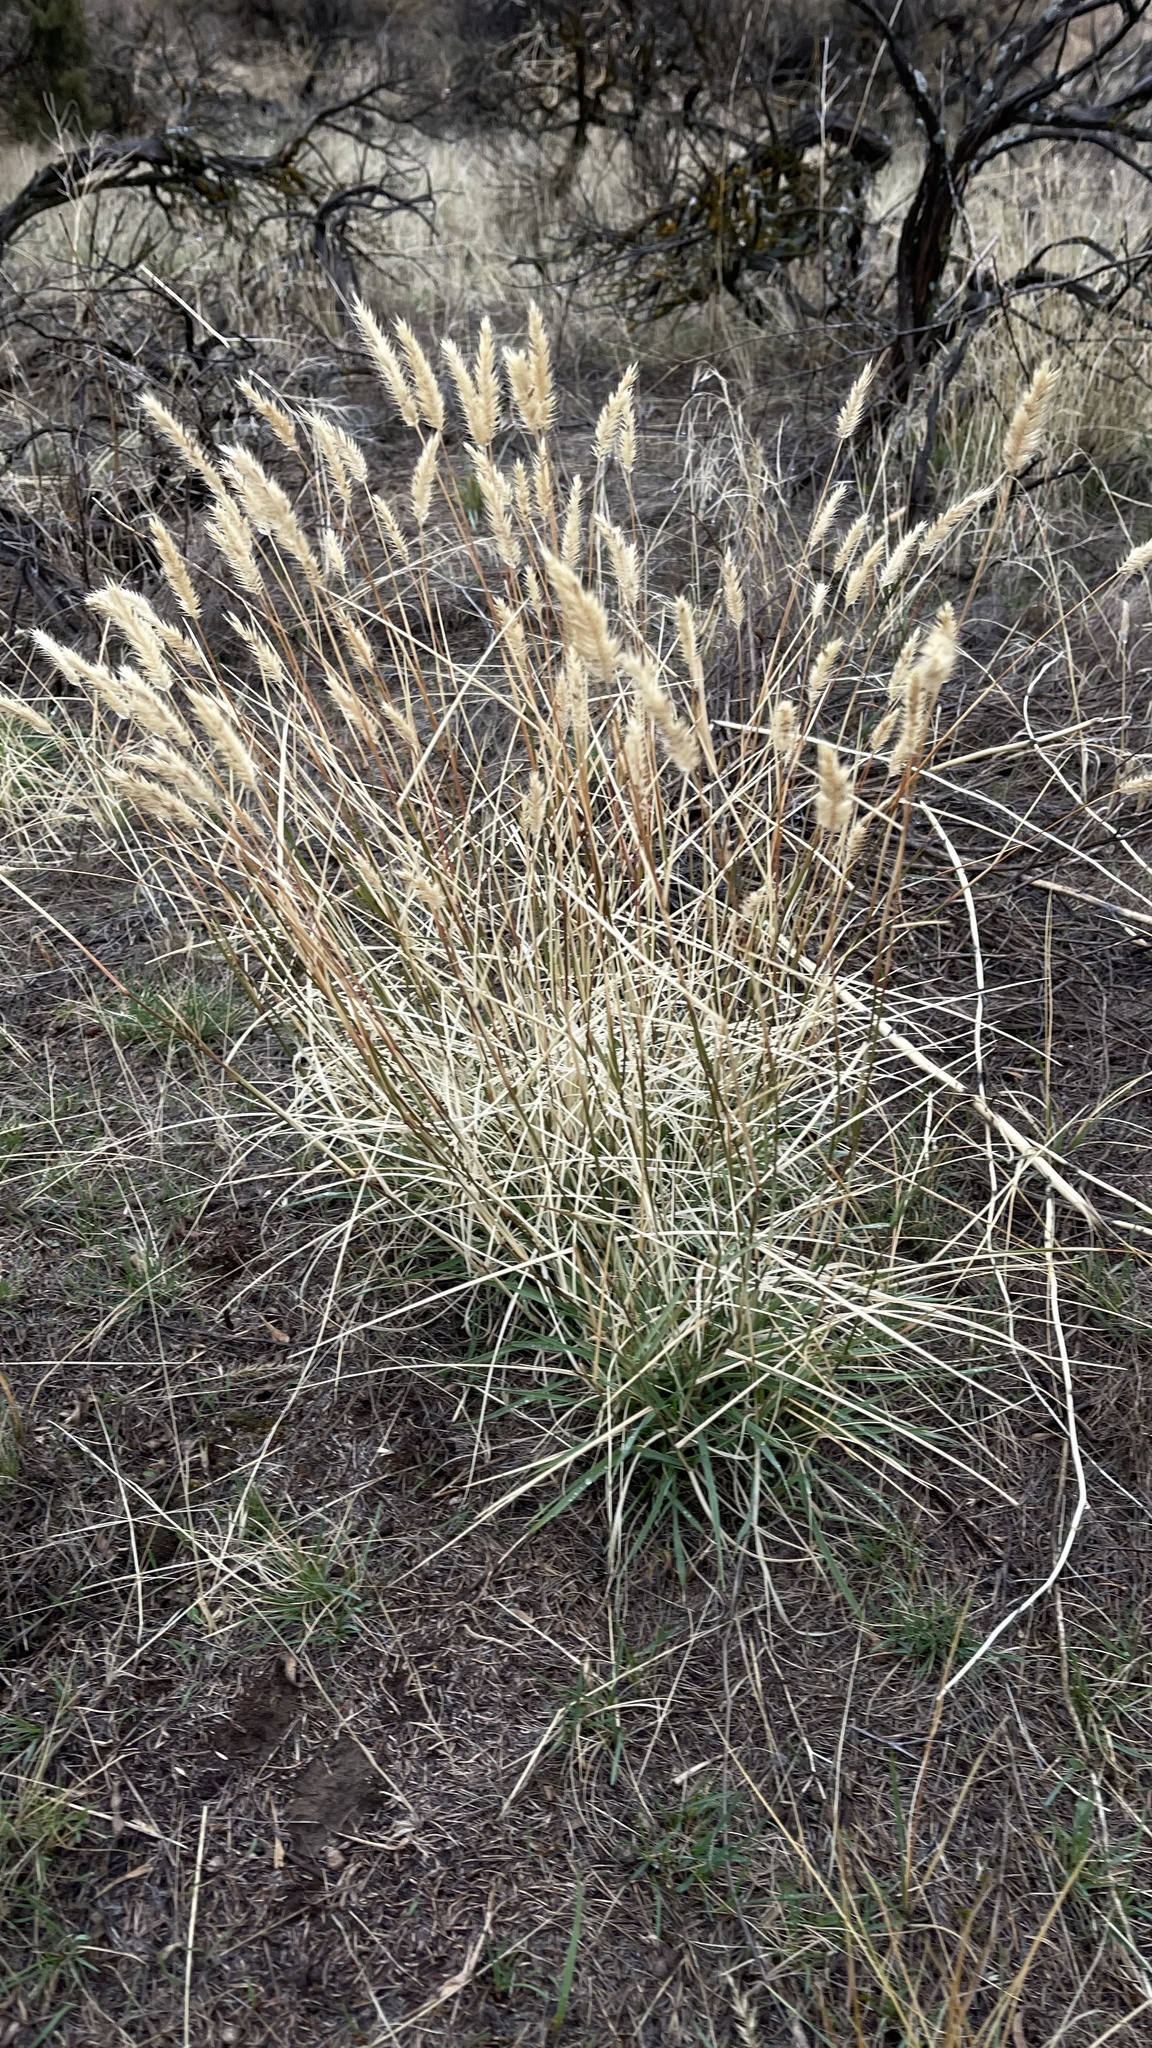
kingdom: Plantae
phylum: Tracheophyta
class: Liliopsida
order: Poales
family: Poaceae
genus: Agropyron
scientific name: Agropyron cristatum
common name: Crested wheatgrass
